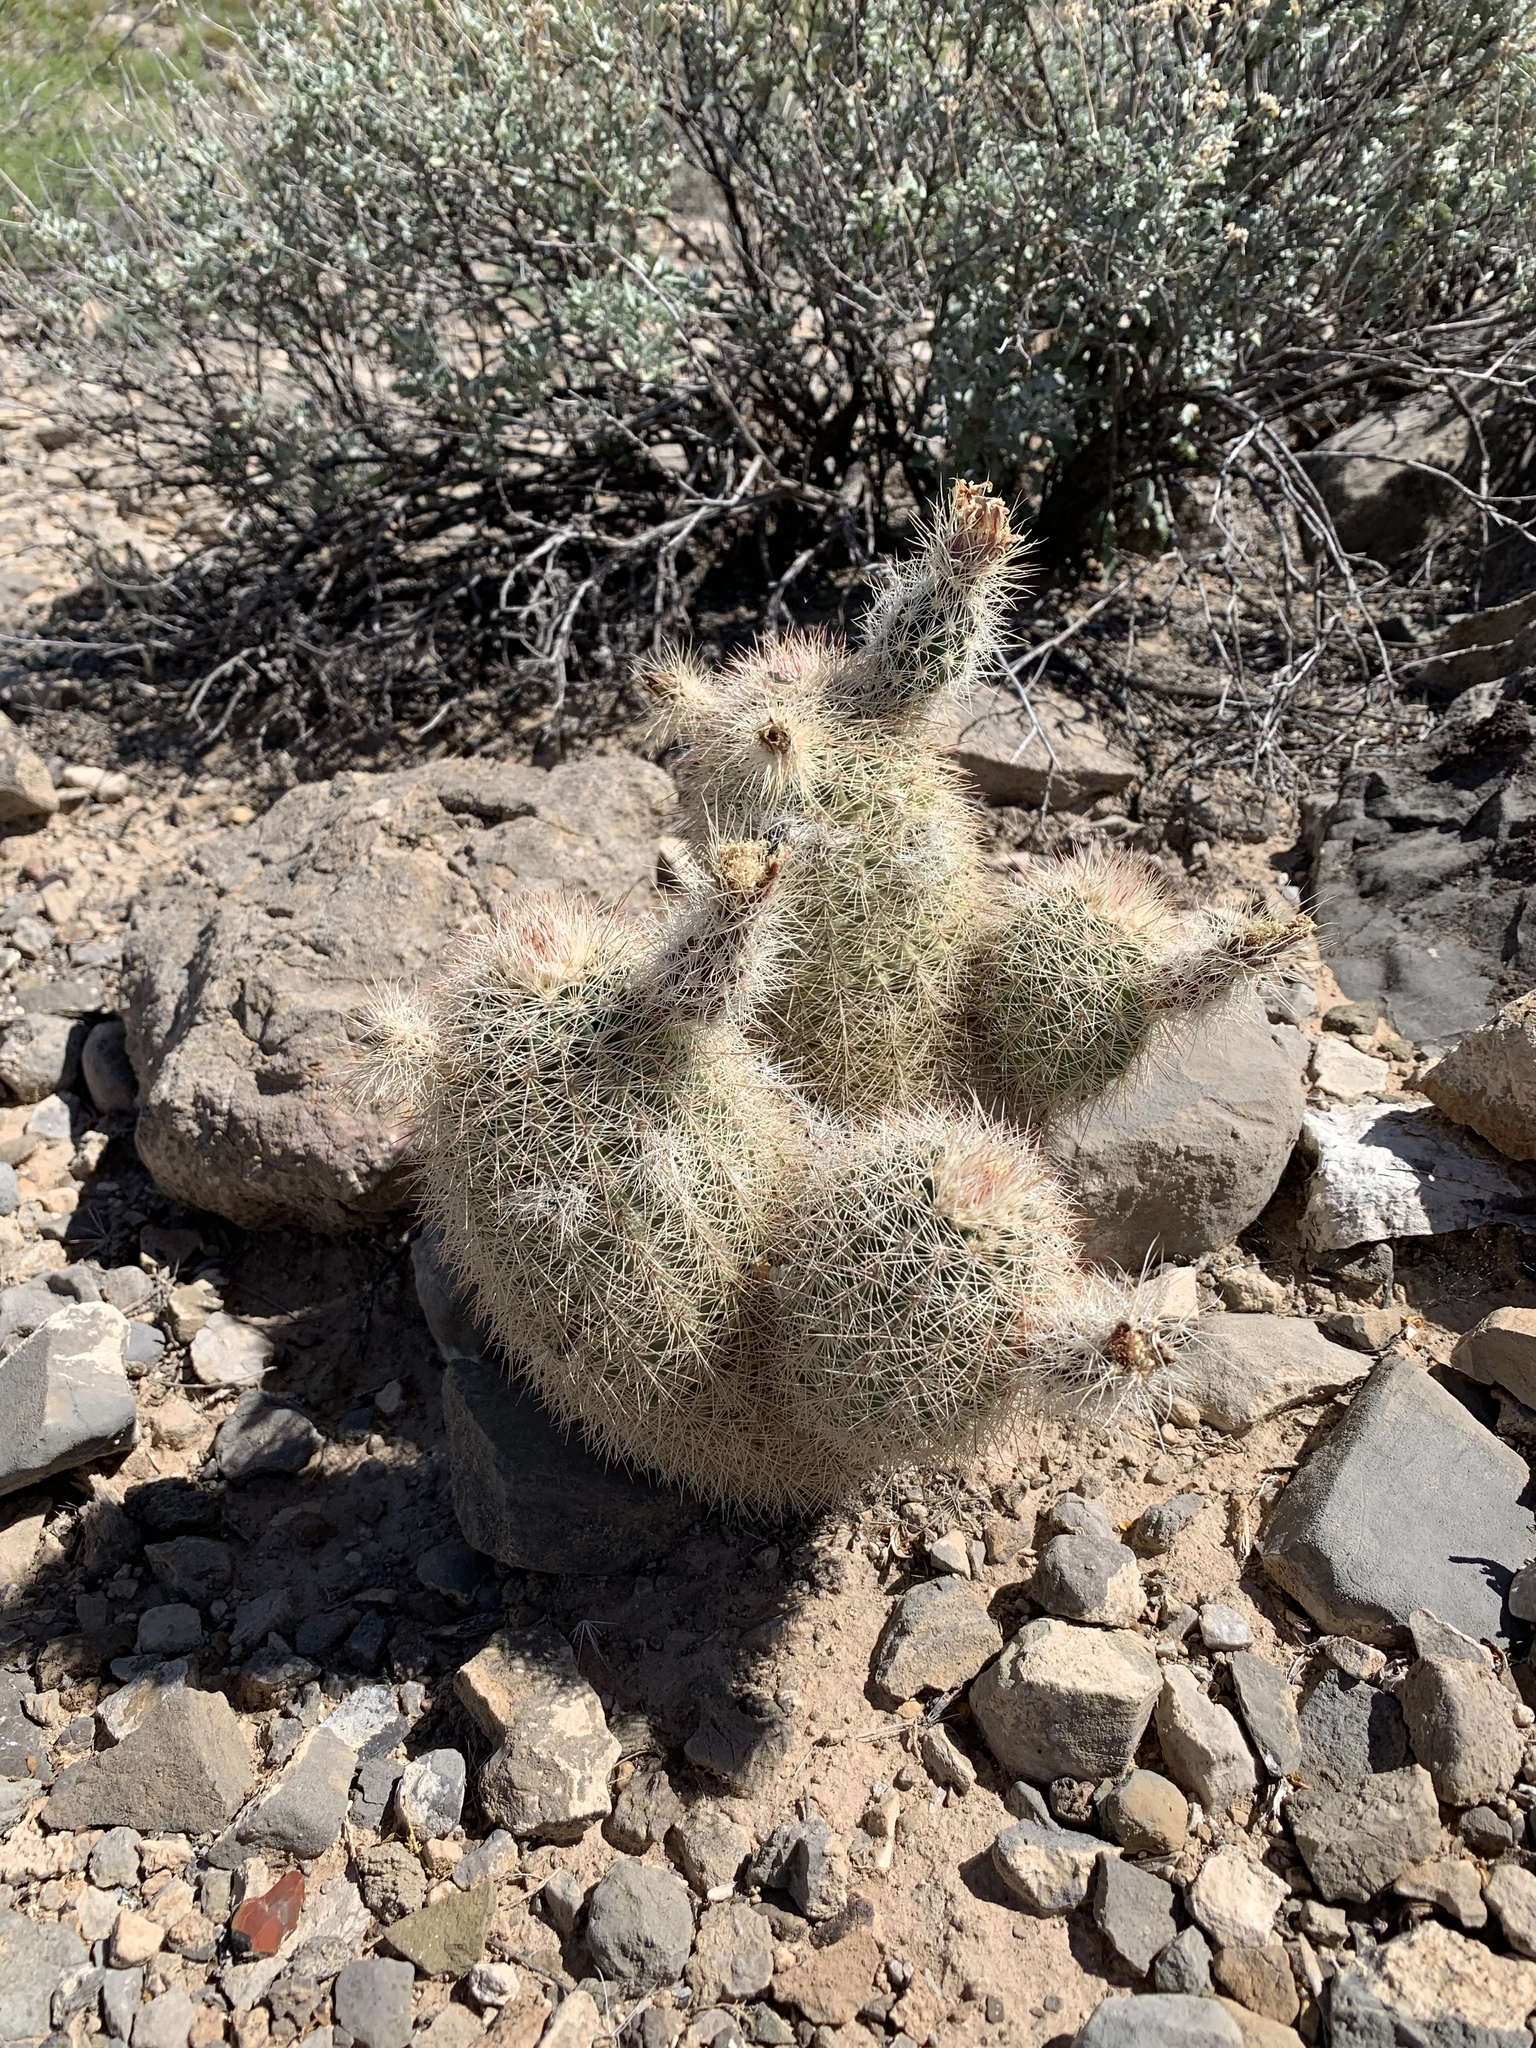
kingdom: Plantae
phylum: Tracheophyta
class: Magnoliopsida
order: Caryophyllales
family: Cactaceae
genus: Echinocereus
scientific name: Echinocereus dasyacanthus
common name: Spiny hedgehog cactus
